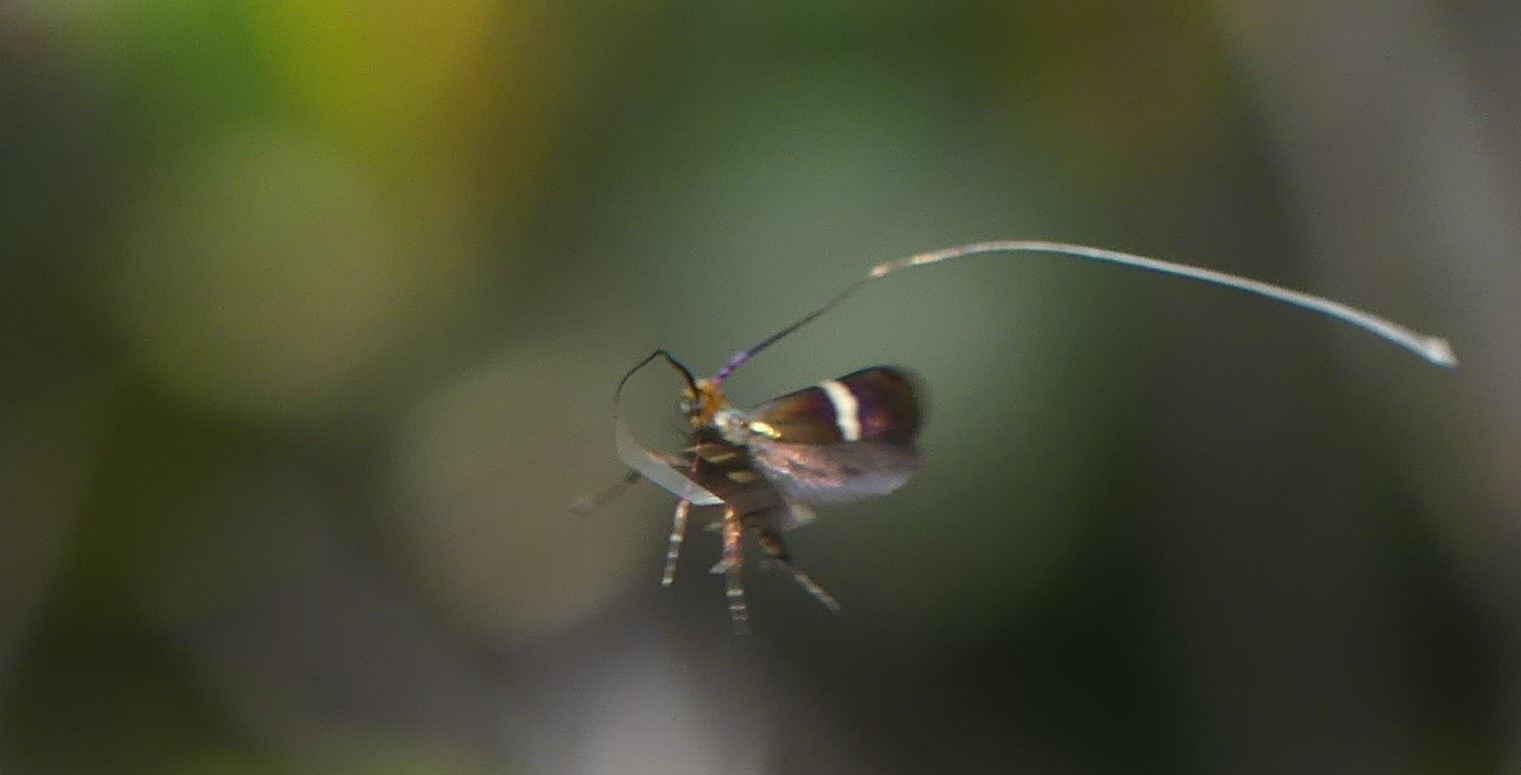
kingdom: Animalia
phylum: Arthropoda
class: Insecta
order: Lepidoptera
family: Adelidae
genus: Adela
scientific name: Adela australis
